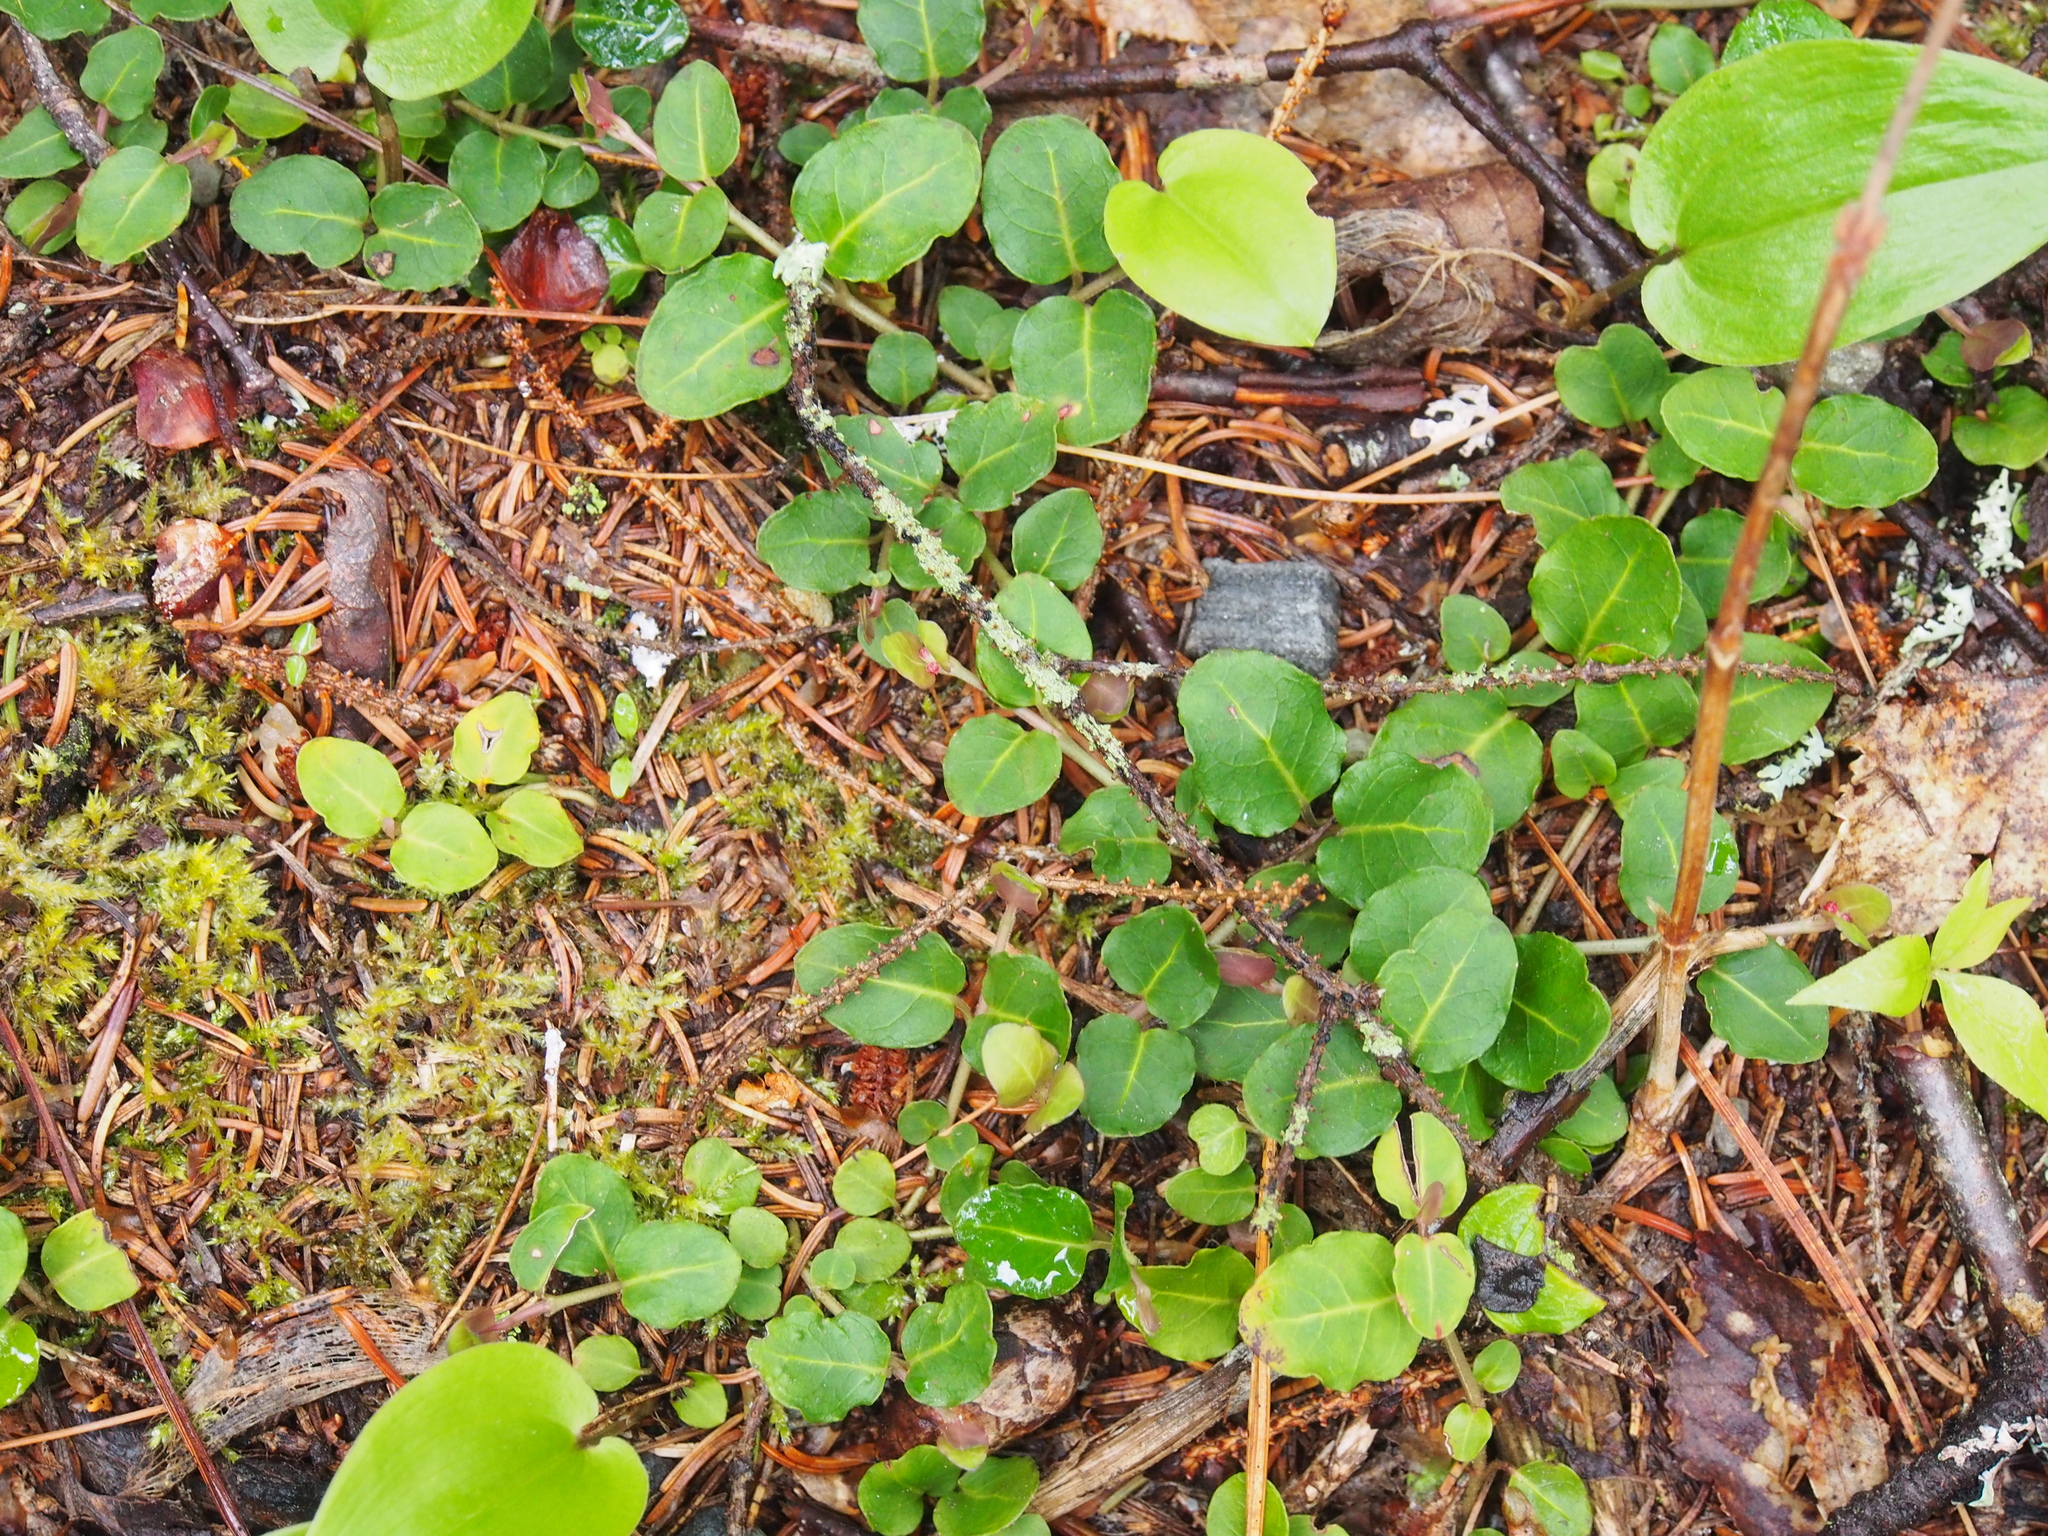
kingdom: Plantae
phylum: Tracheophyta
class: Magnoliopsida
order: Gentianales
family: Rubiaceae
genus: Mitchella
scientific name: Mitchella repens
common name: Partridge-berry
